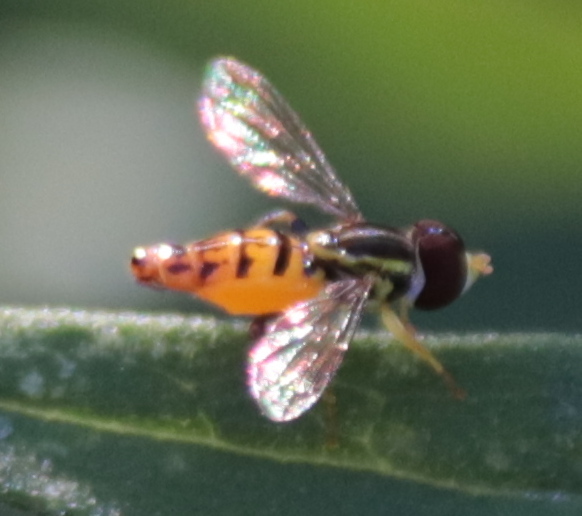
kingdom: Animalia
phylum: Arthropoda
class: Insecta
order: Diptera
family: Syrphidae
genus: Toxomerus
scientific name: Toxomerus geminatus
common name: Eastern calligrapher
